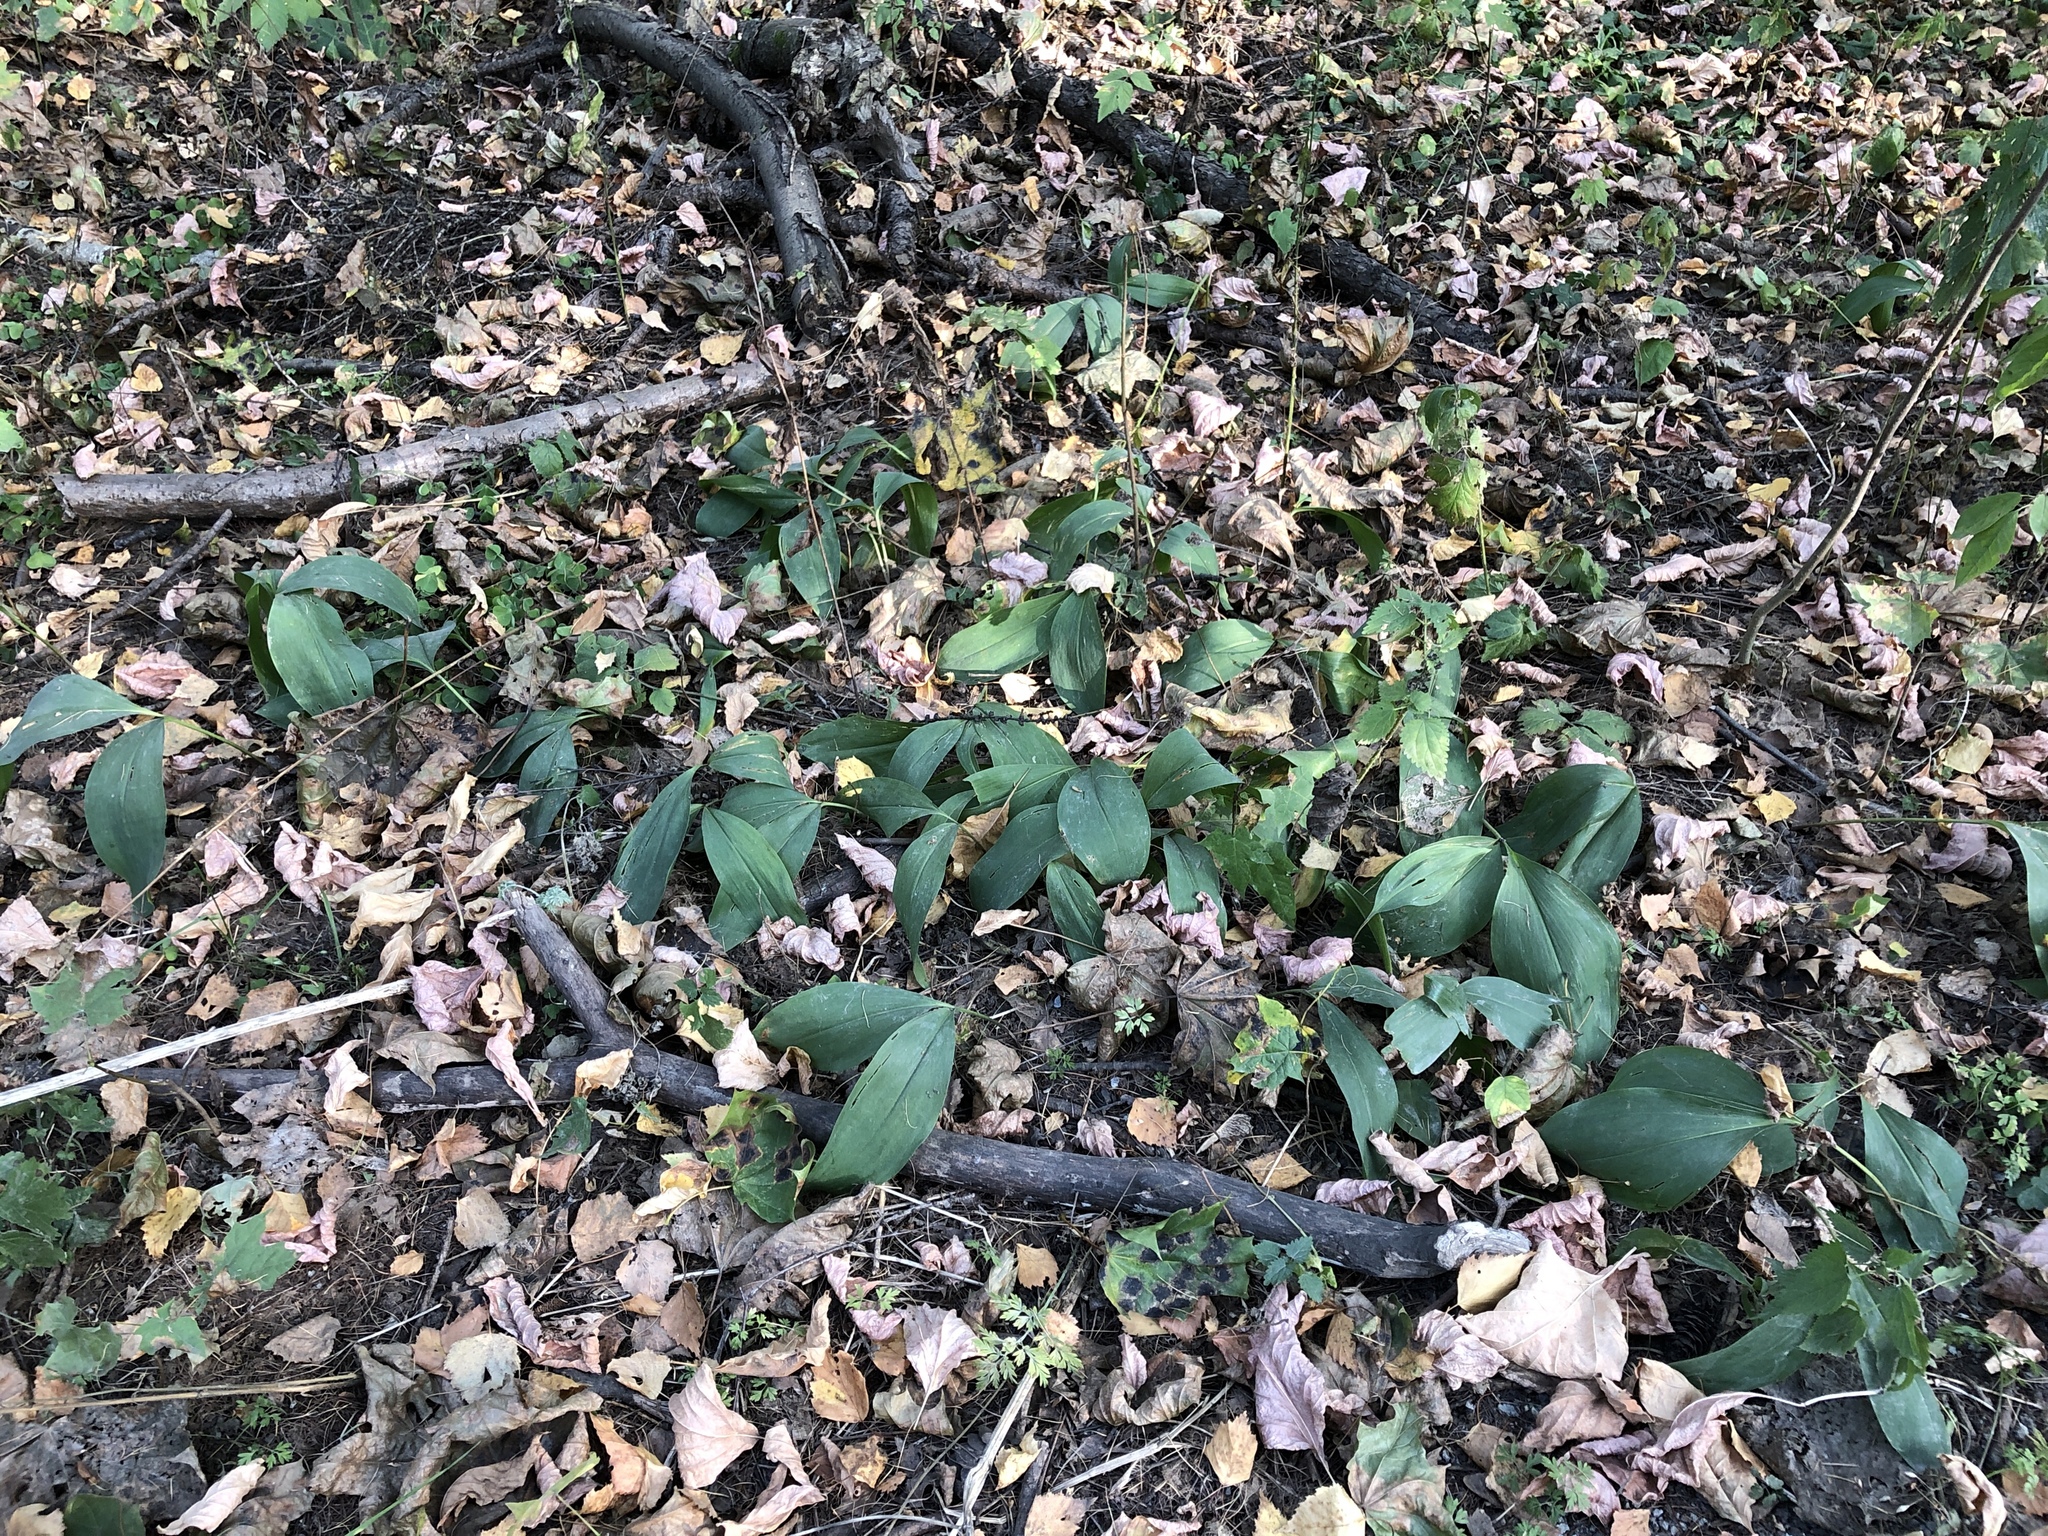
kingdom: Plantae
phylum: Tracheophyta
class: Liliopsida
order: Asparagales
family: Asparagaceae
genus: Convallaria
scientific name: Convallaria majalis
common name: Lily-of-the-valley
